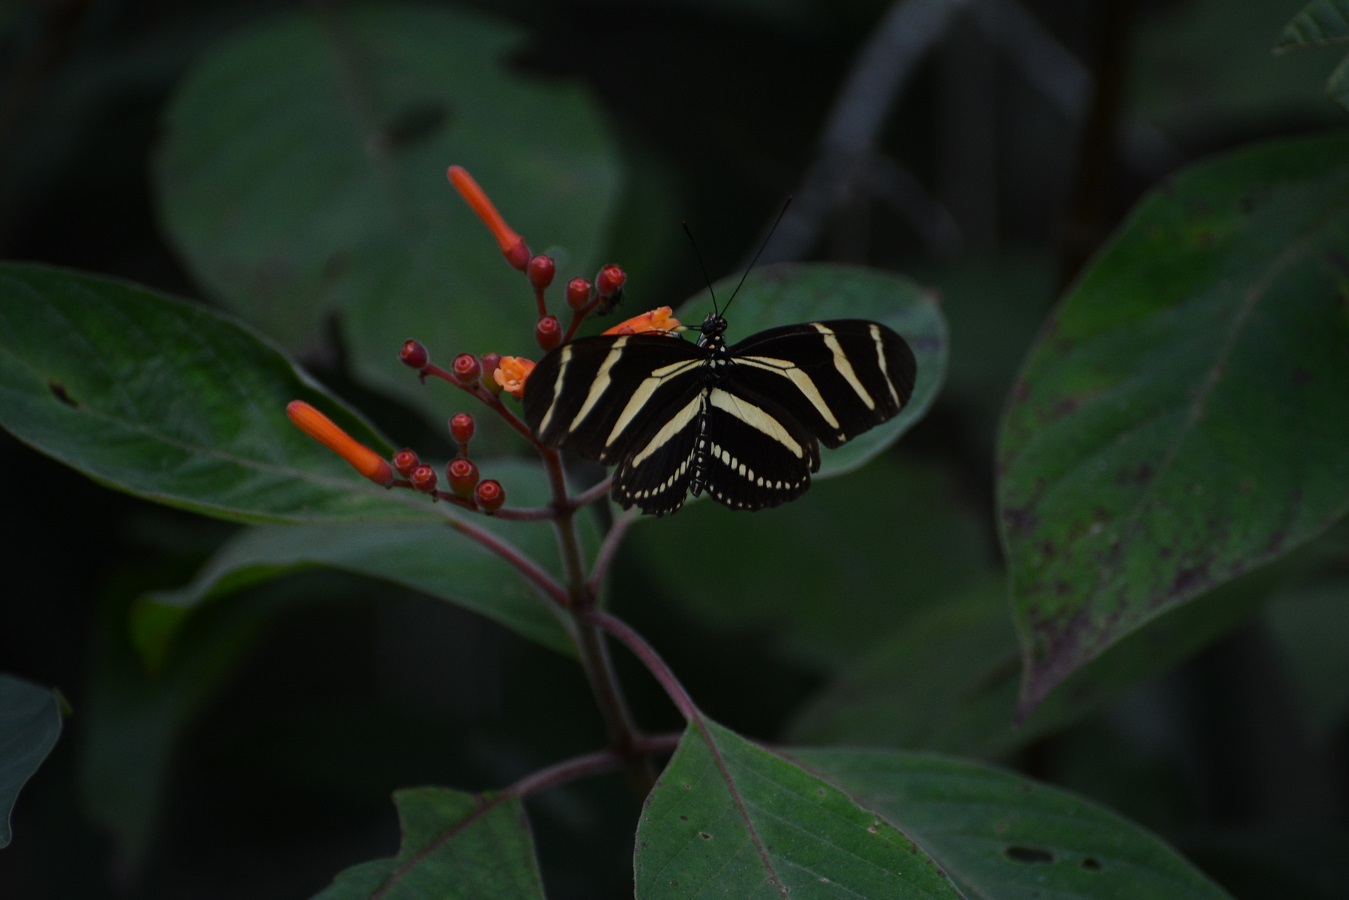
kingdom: Animalia
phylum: Arthropoda
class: Insecta
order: Lepidoptera
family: Nymphalidae
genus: Heliconius
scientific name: Heliconius charithonia
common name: Zebra long wing
